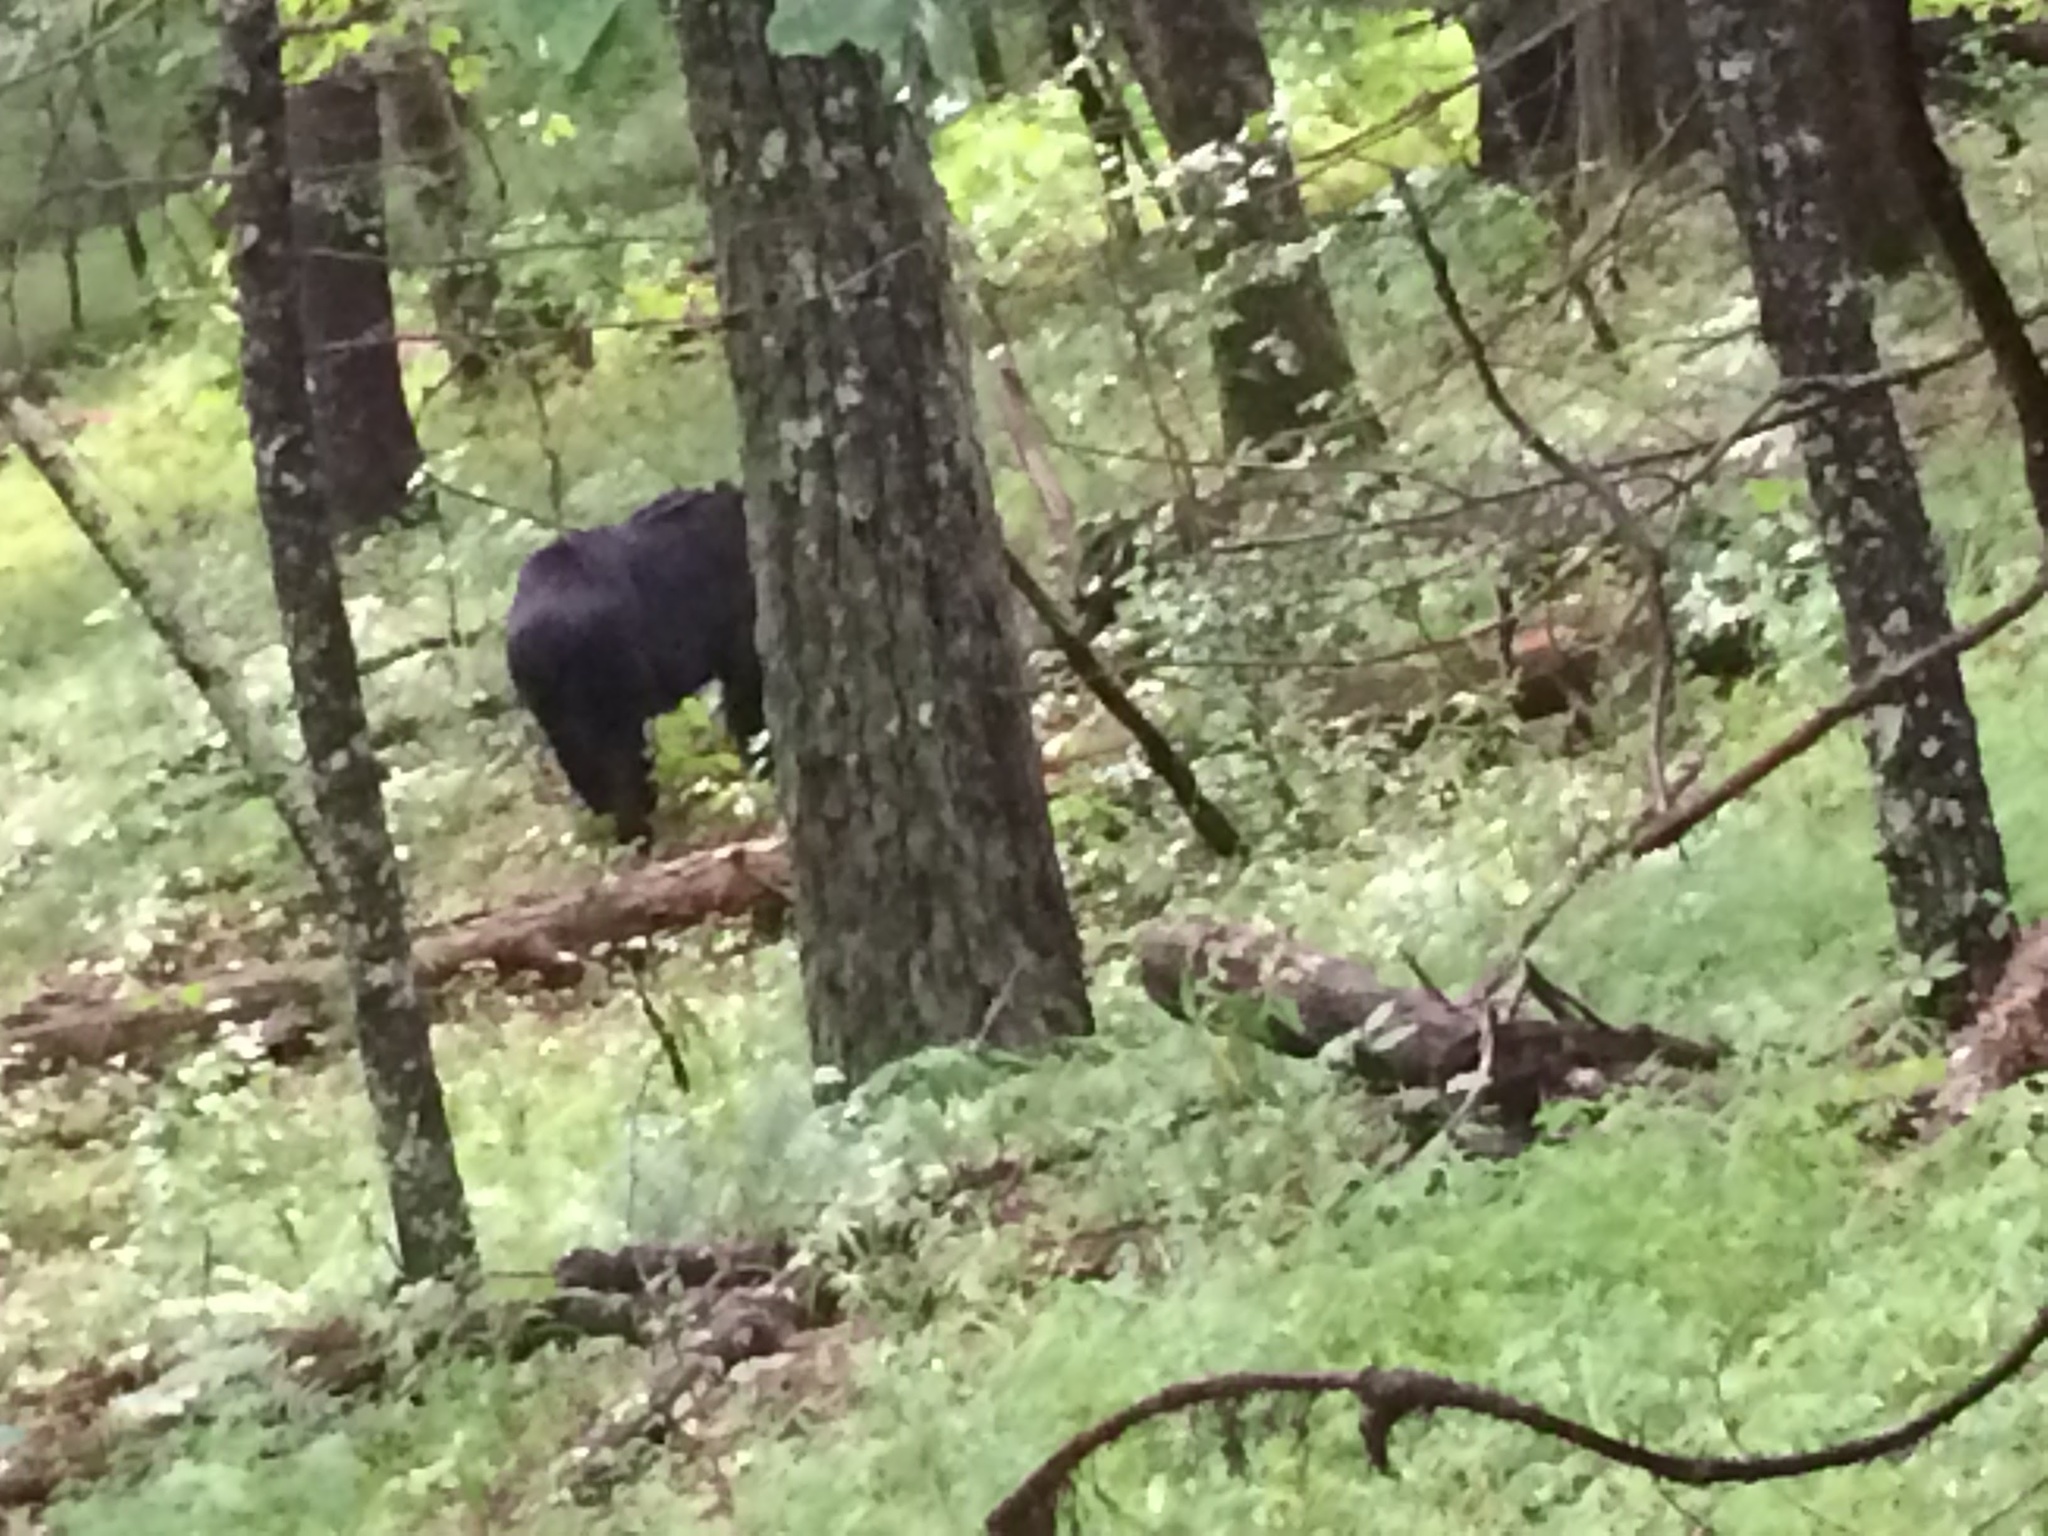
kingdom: Animalia
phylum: Chordata
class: Mammalia
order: Carnivora
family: Ursidae
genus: Ursus
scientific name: Ursus americanus
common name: American black bear
